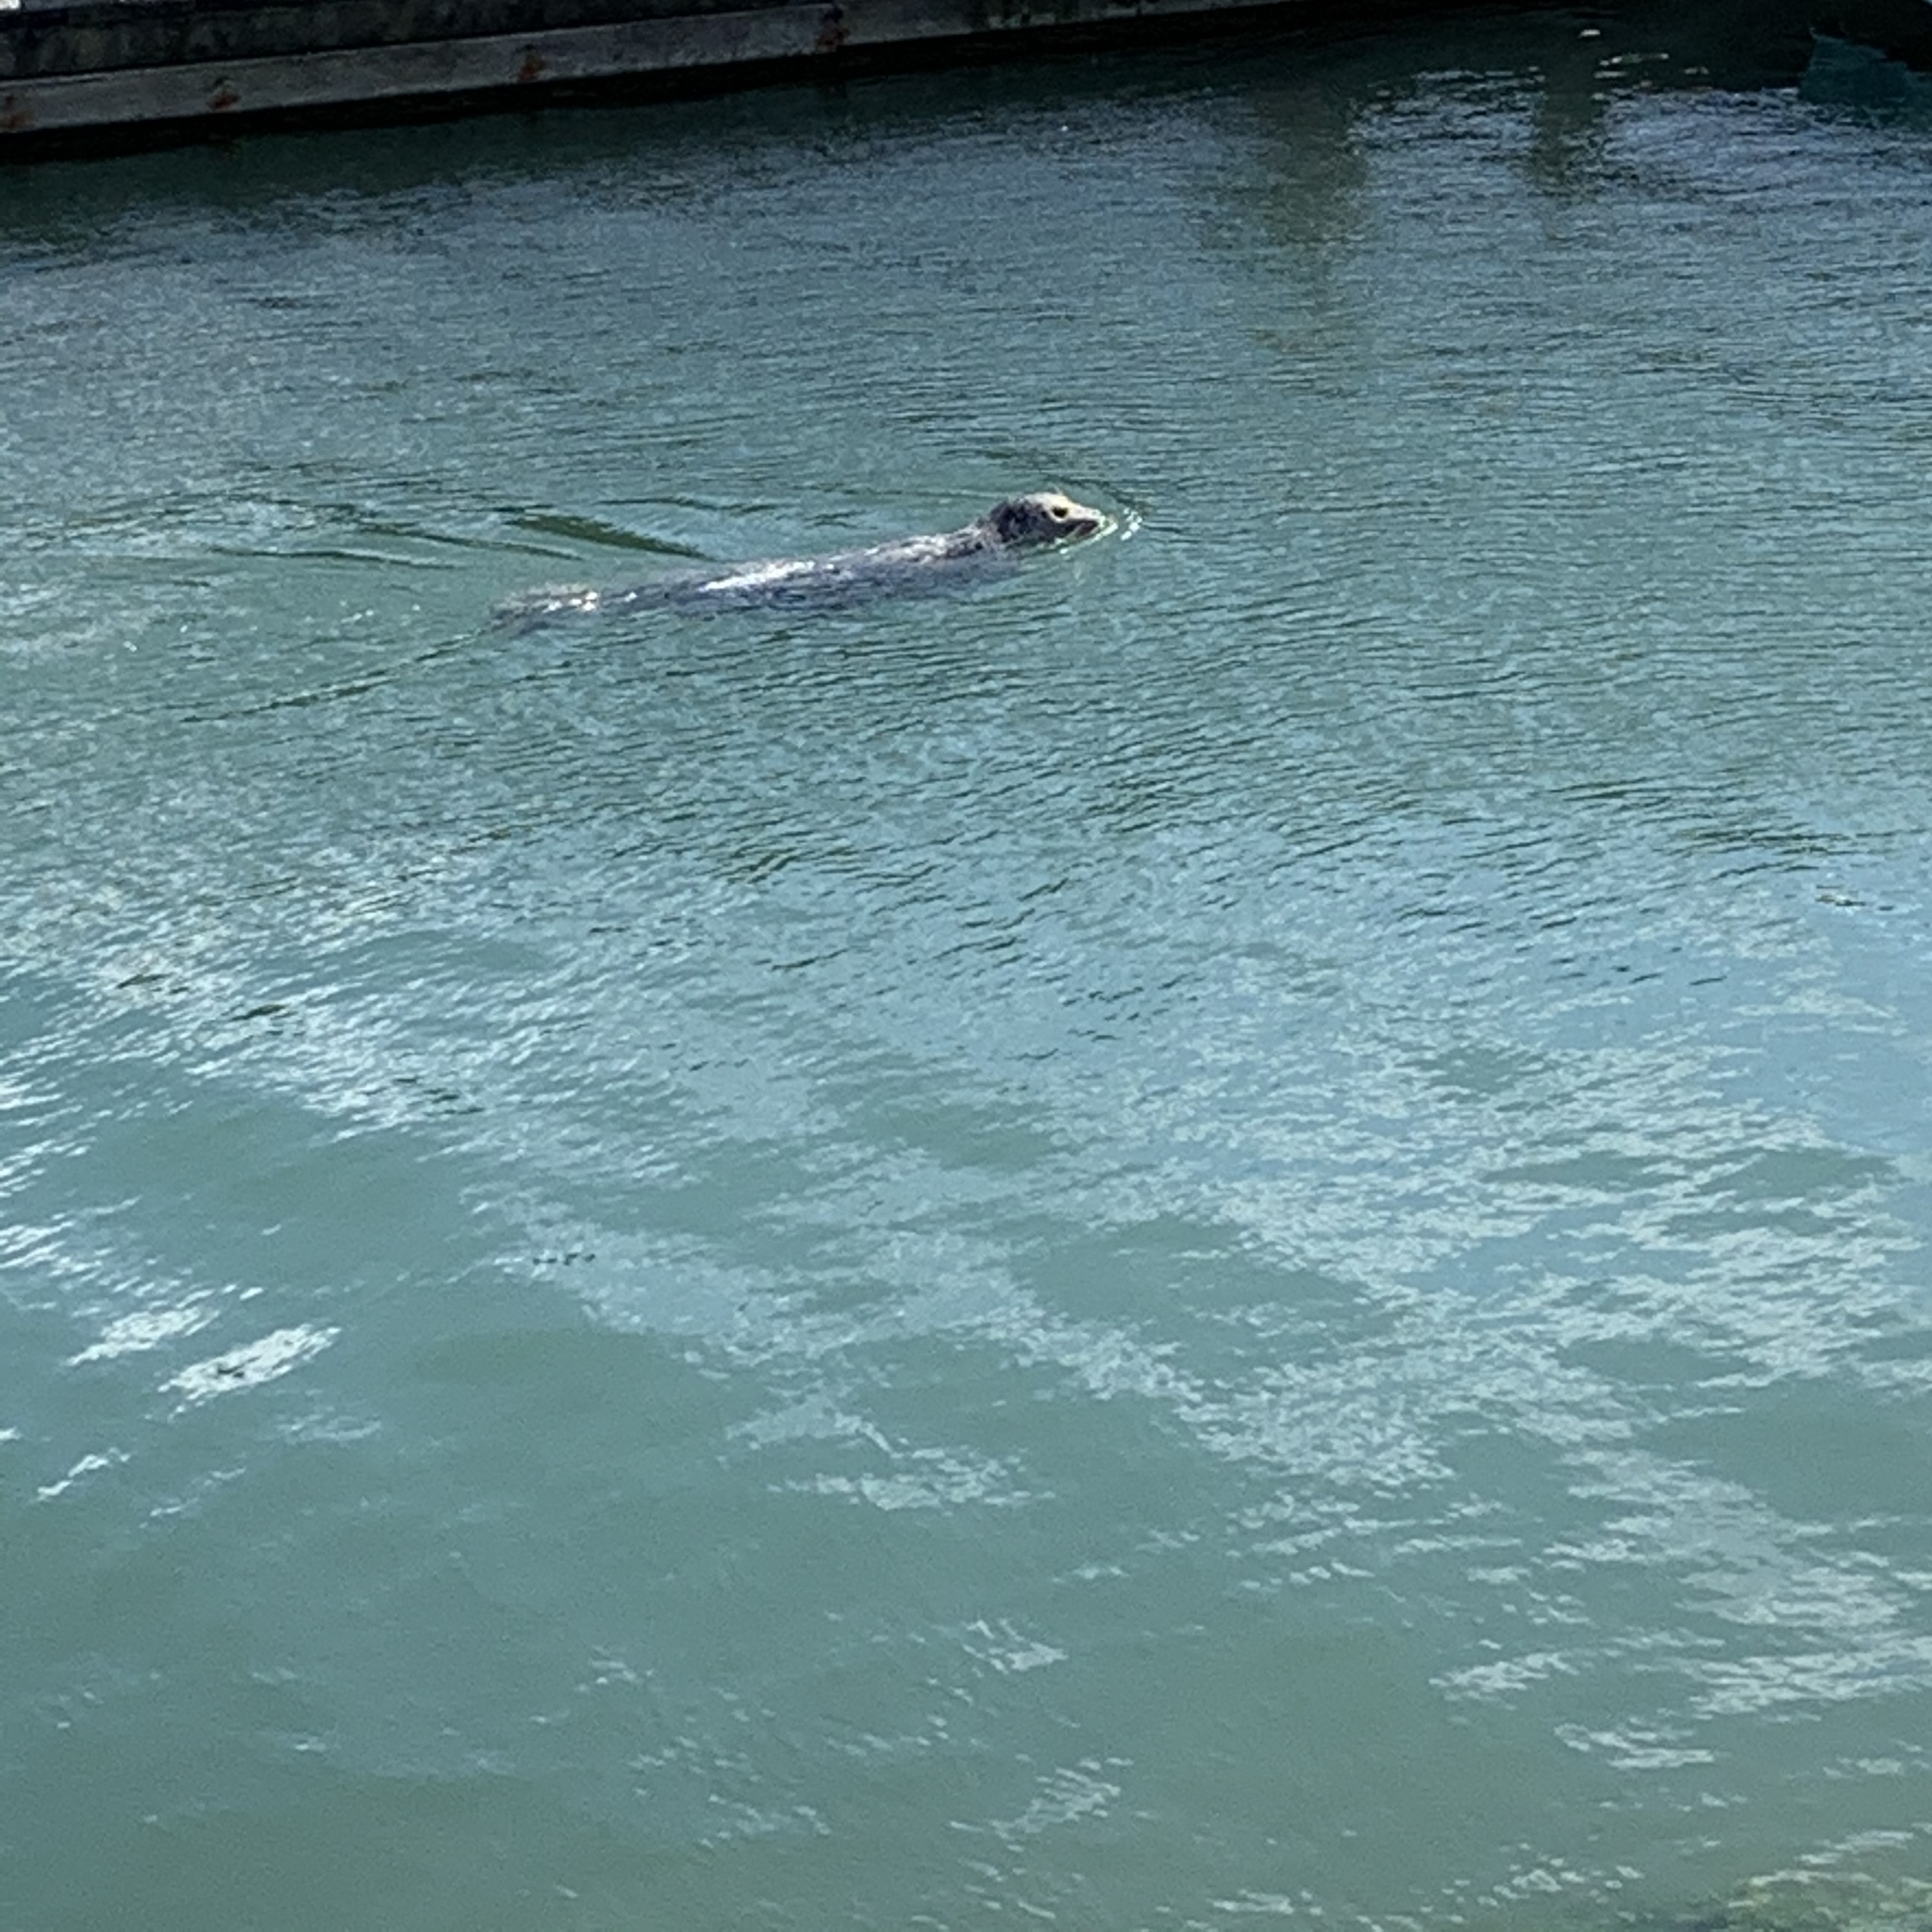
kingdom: Animalia
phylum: Chordata
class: Mammalia
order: Carnivora
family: Phocidae
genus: Phoca
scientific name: Phoca vitulina
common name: Harbor seal
